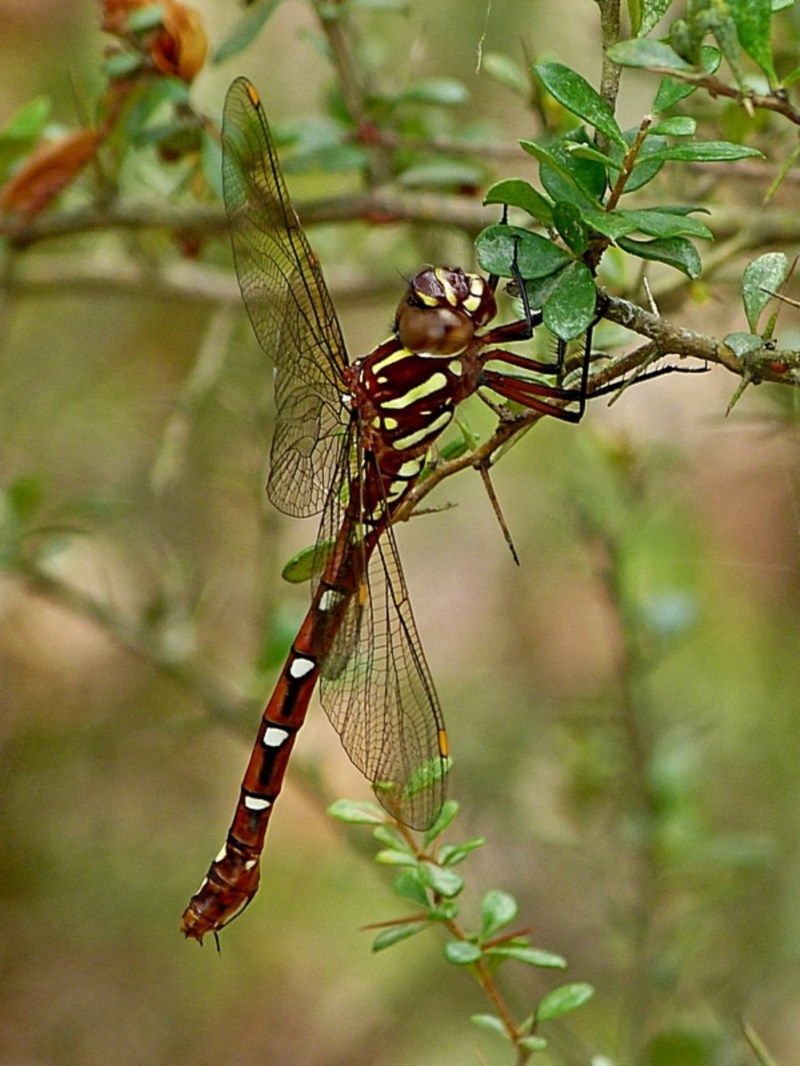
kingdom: Animalia
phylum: Arthropoda
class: Insecta
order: Odonata
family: Aeshnidae
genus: Austroaeschna
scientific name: Austroaeschna pulchra
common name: Forest darner
